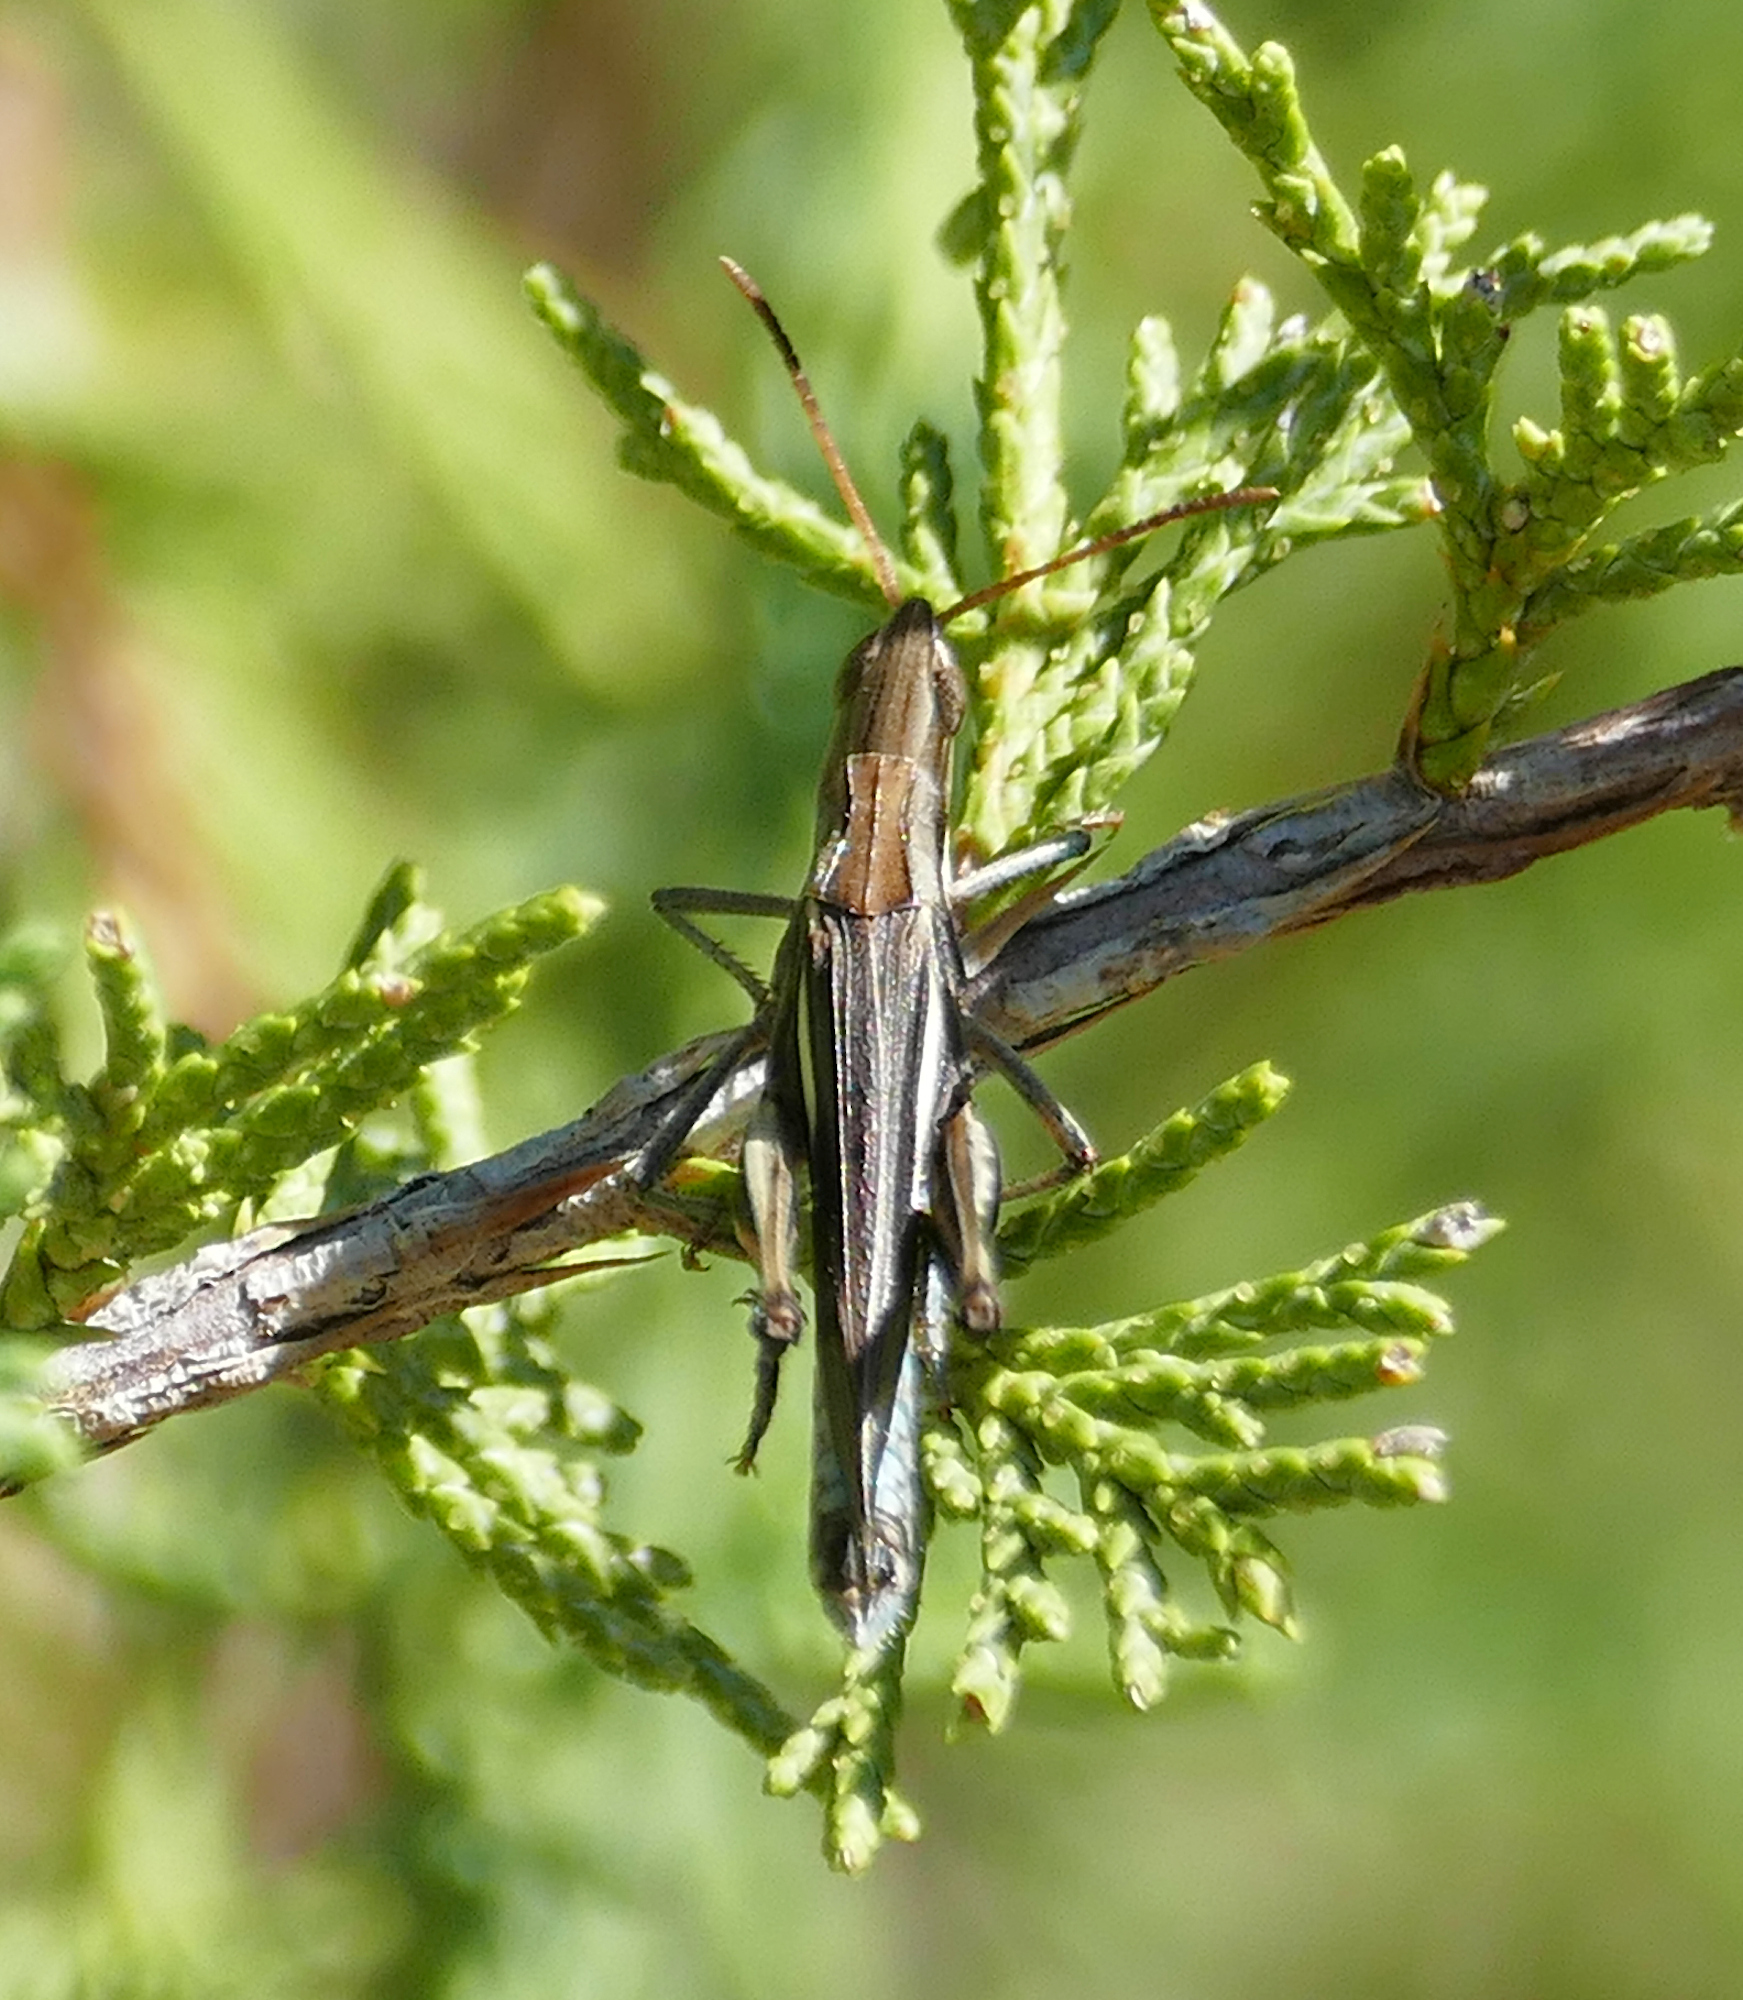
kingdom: Animalia
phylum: Arthropoda
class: Insecta
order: Orthoptera
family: Acrididae
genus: Syrbula
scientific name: Syrbula montezuma
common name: Montezuma's grasshopper
